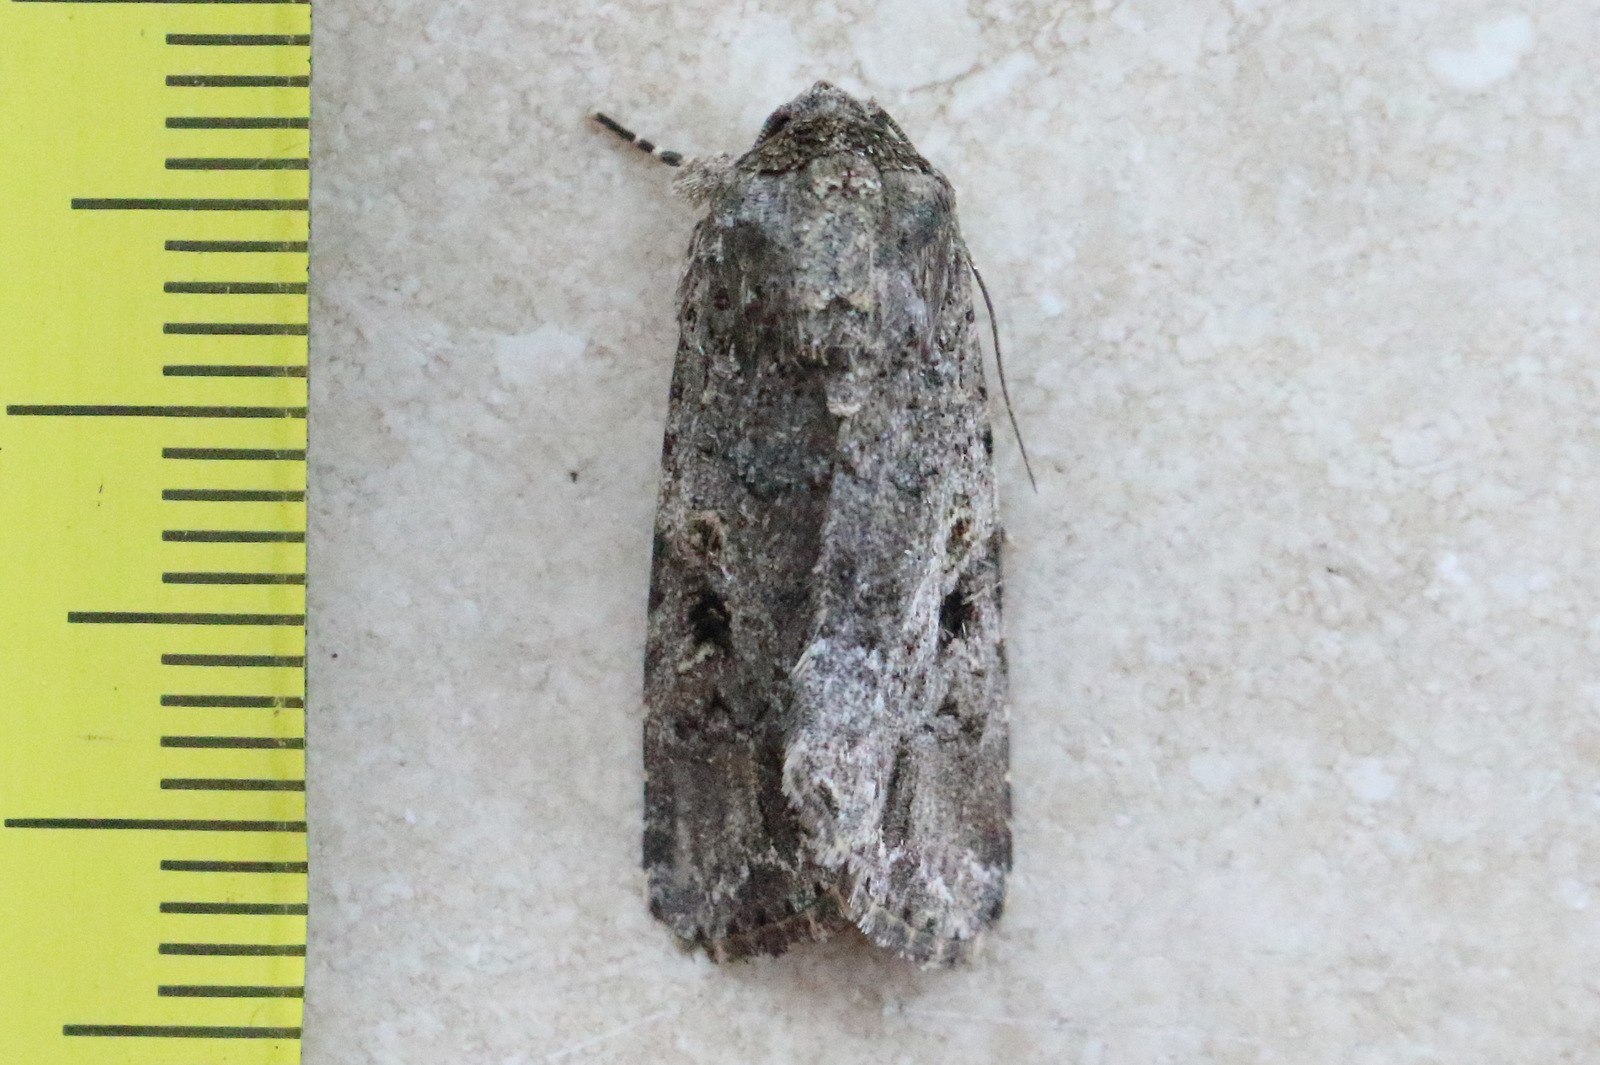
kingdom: Animalia
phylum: Arthropoda
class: Insecta
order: Lepidoptera
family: Noctuidae
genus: Spodoptera
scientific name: Spodoptera mauritia
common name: Lawn armyworm
